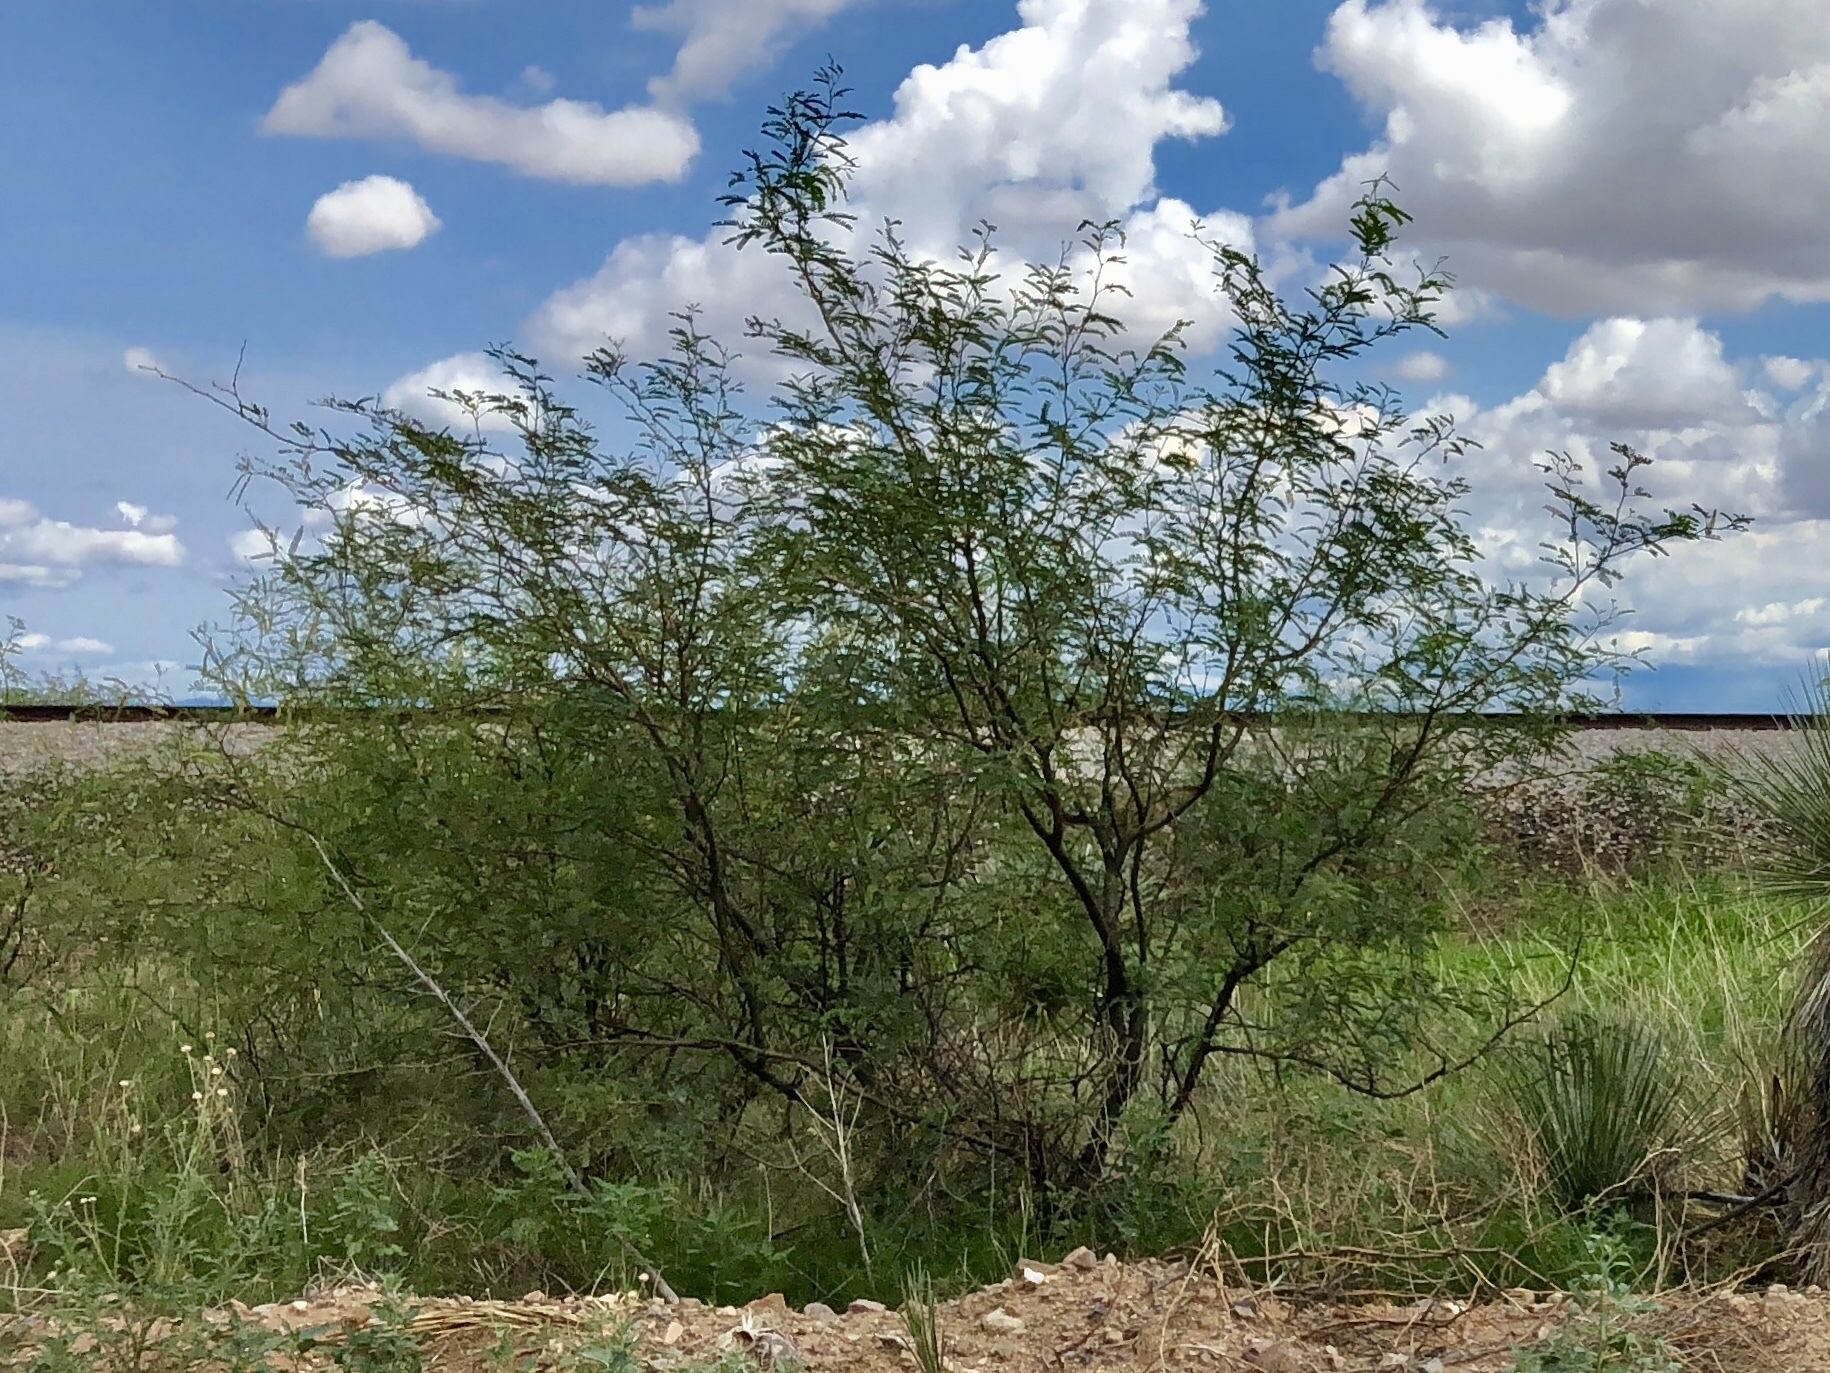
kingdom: Plantae
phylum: Tracheophyta
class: Magnoliopsida
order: Fabales
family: Fabaceae
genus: Prosopis
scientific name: Prosopis glandulosa
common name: Honey mesquite
